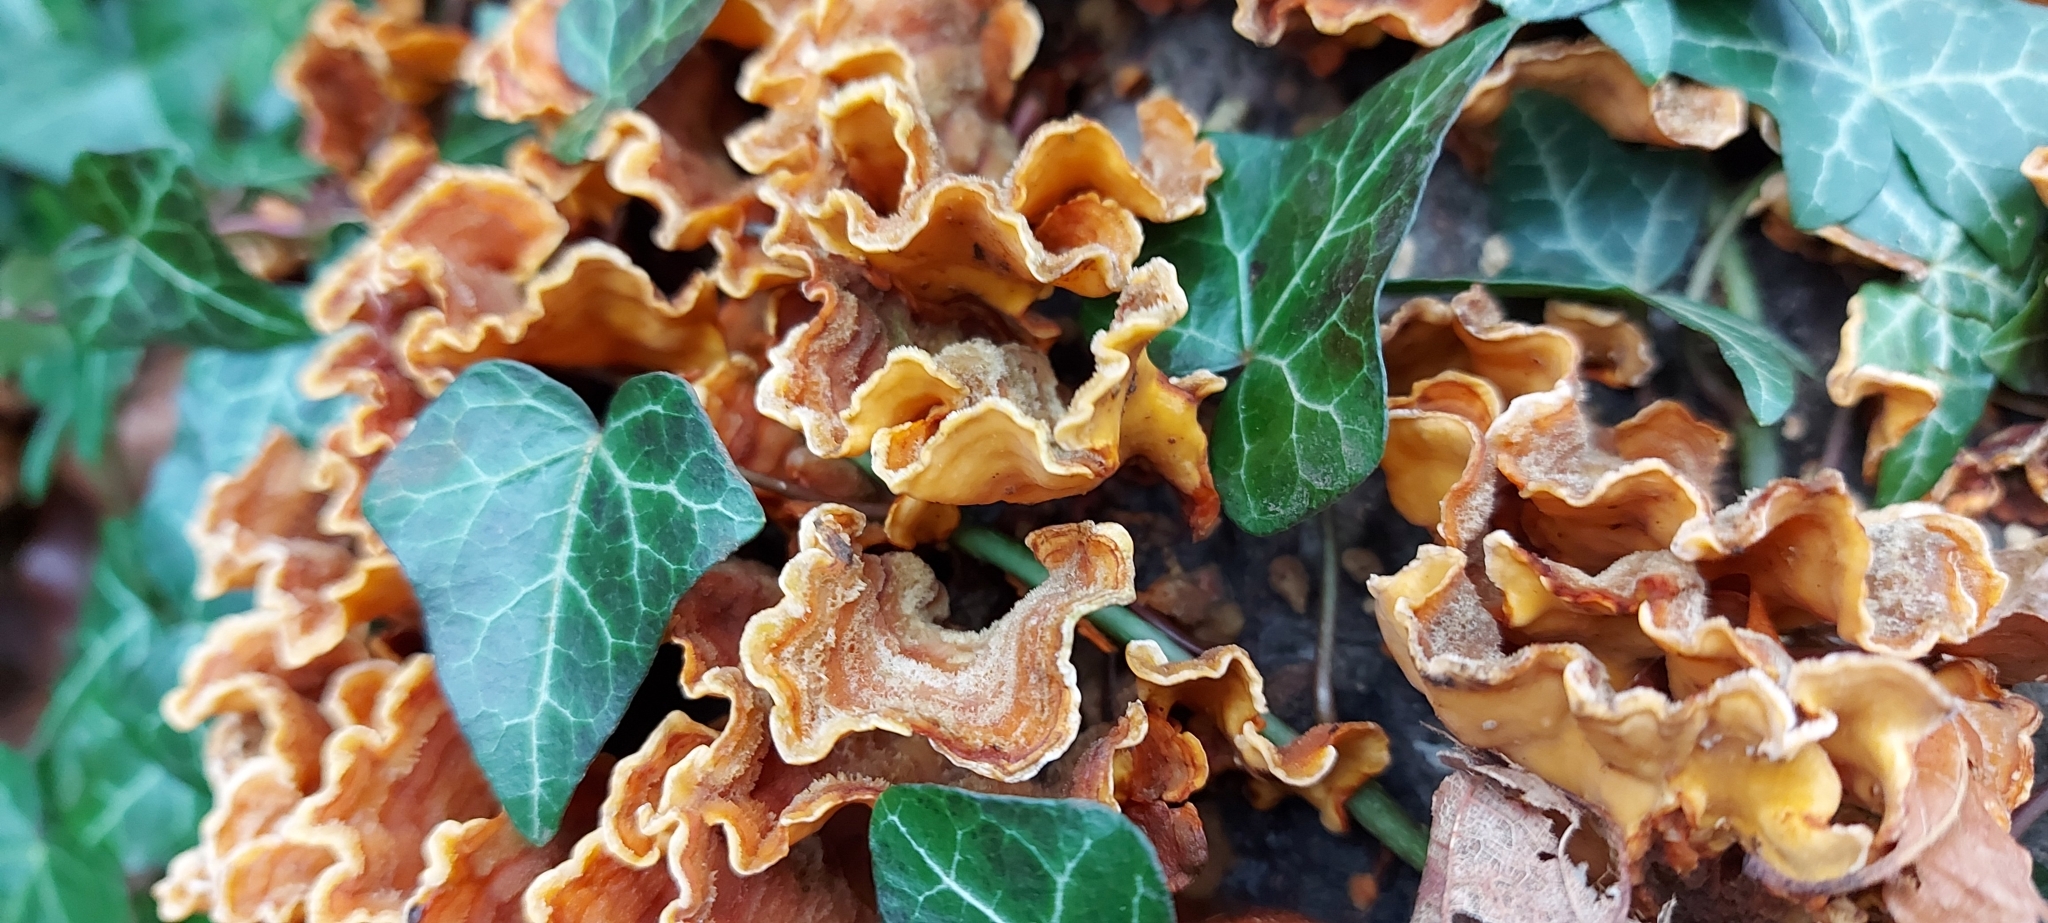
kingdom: Fungi
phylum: Basidiomycota
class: Agaricomycetes
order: Russulales
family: Stereaceae
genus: Stereum
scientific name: Stereum hirsutum
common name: Hairy curtain crust
